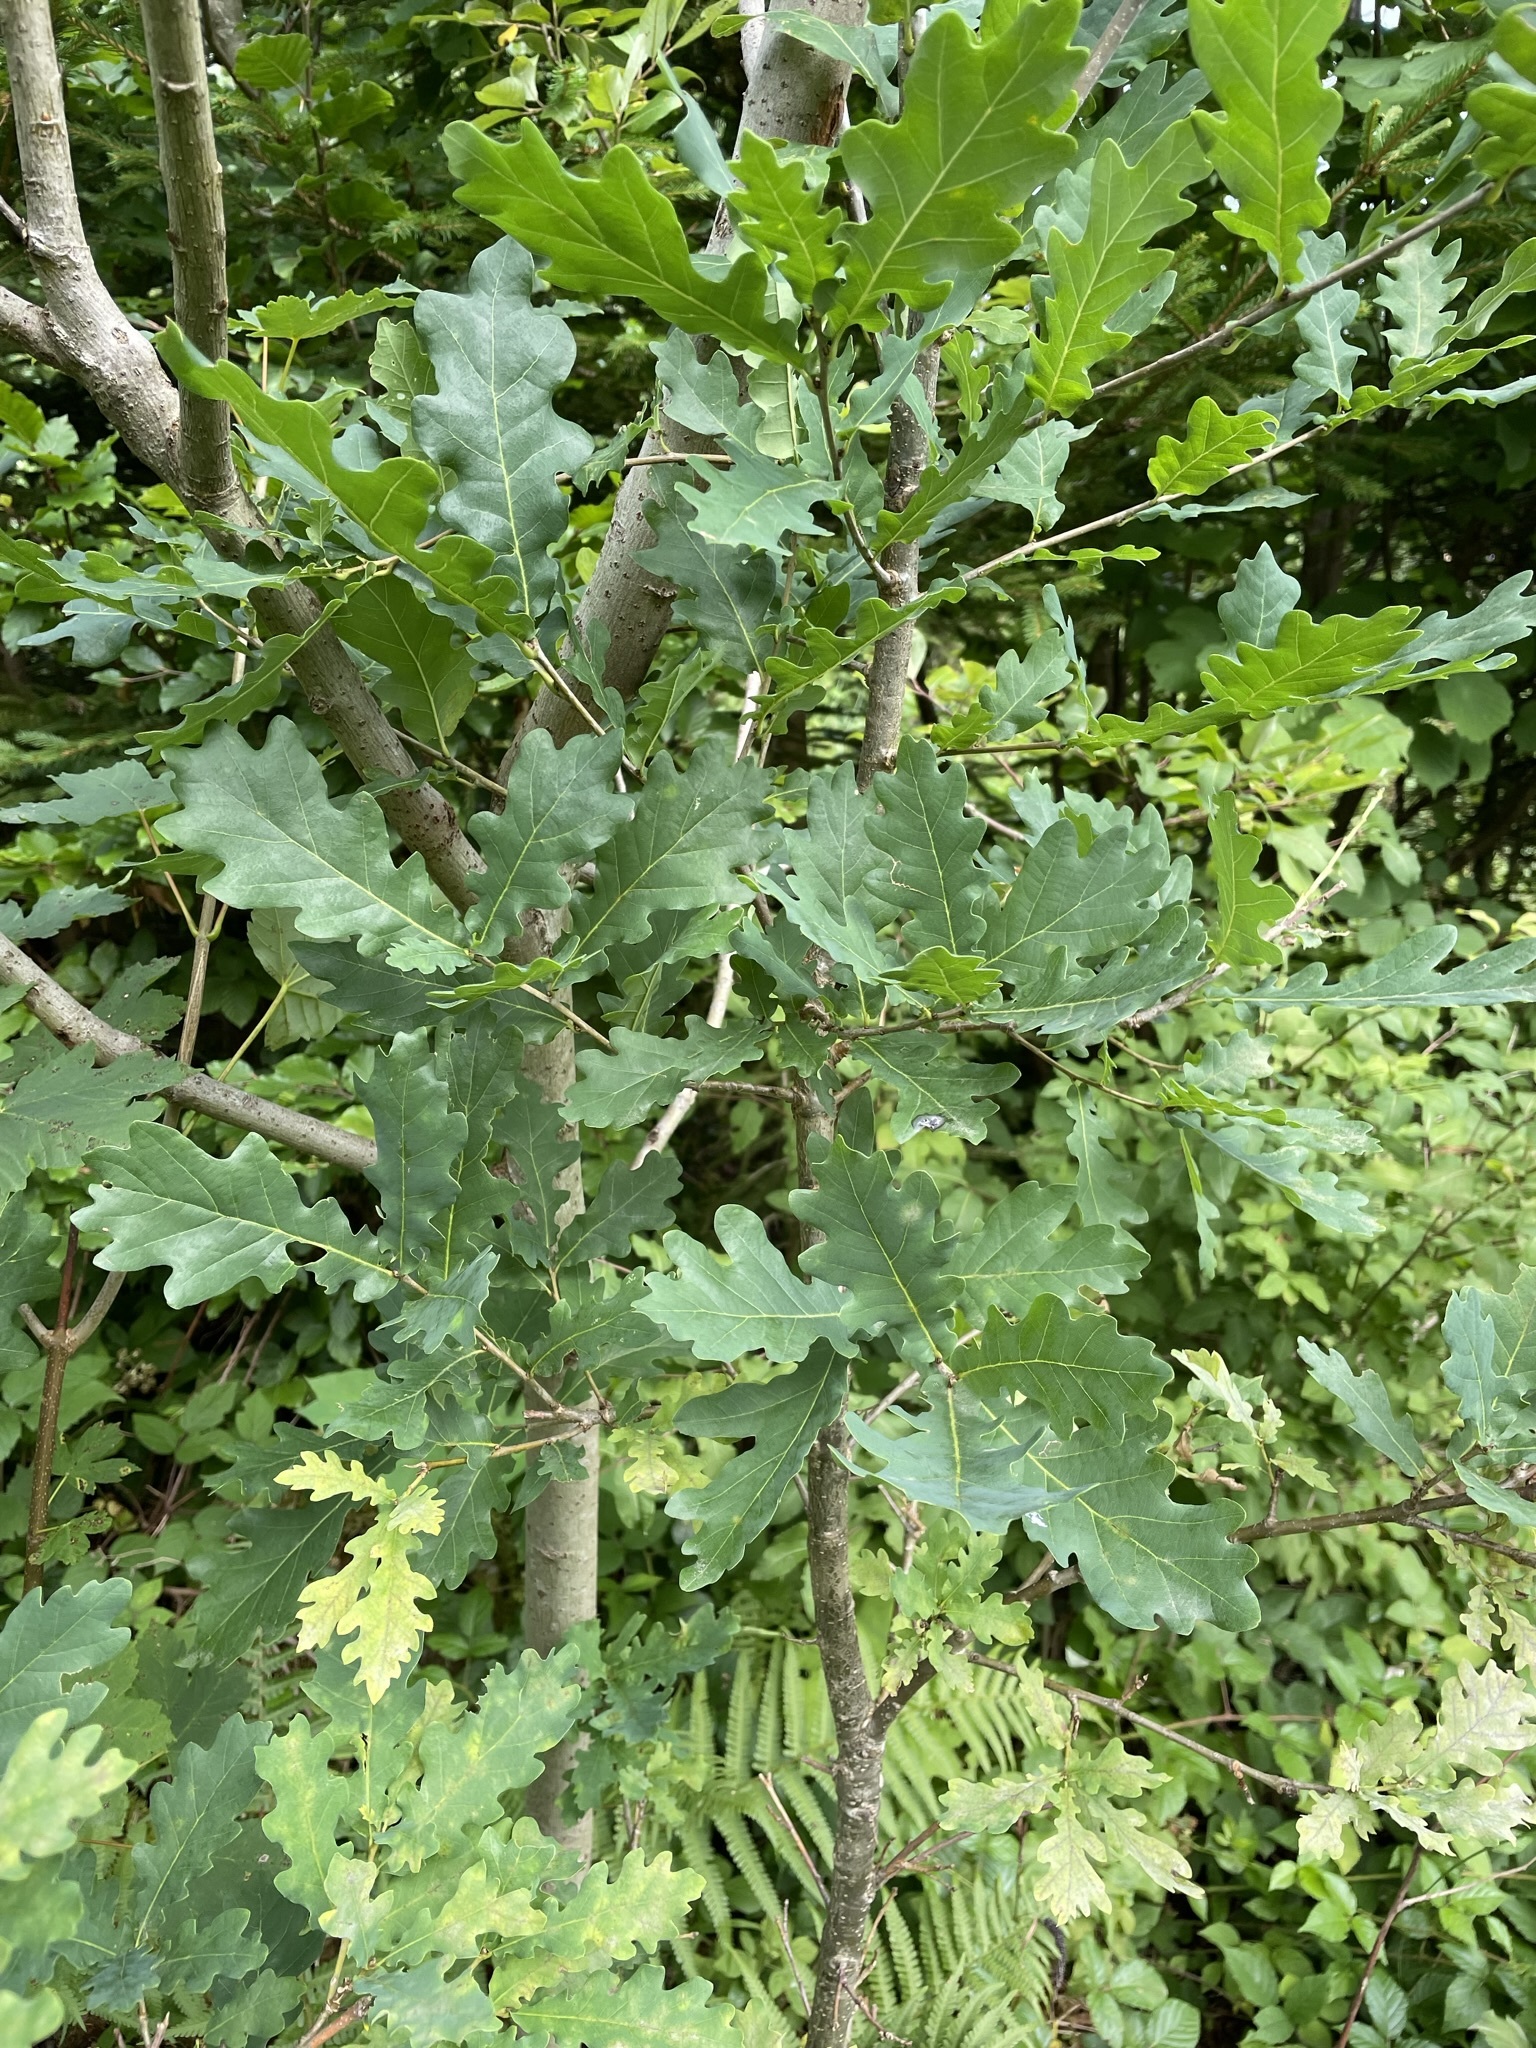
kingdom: Plantae
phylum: Tracheophyta
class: Magnoliopsida
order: Fagales
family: Fagaceae
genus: Quercus
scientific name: Quercus robur
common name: Pedunculate oak
